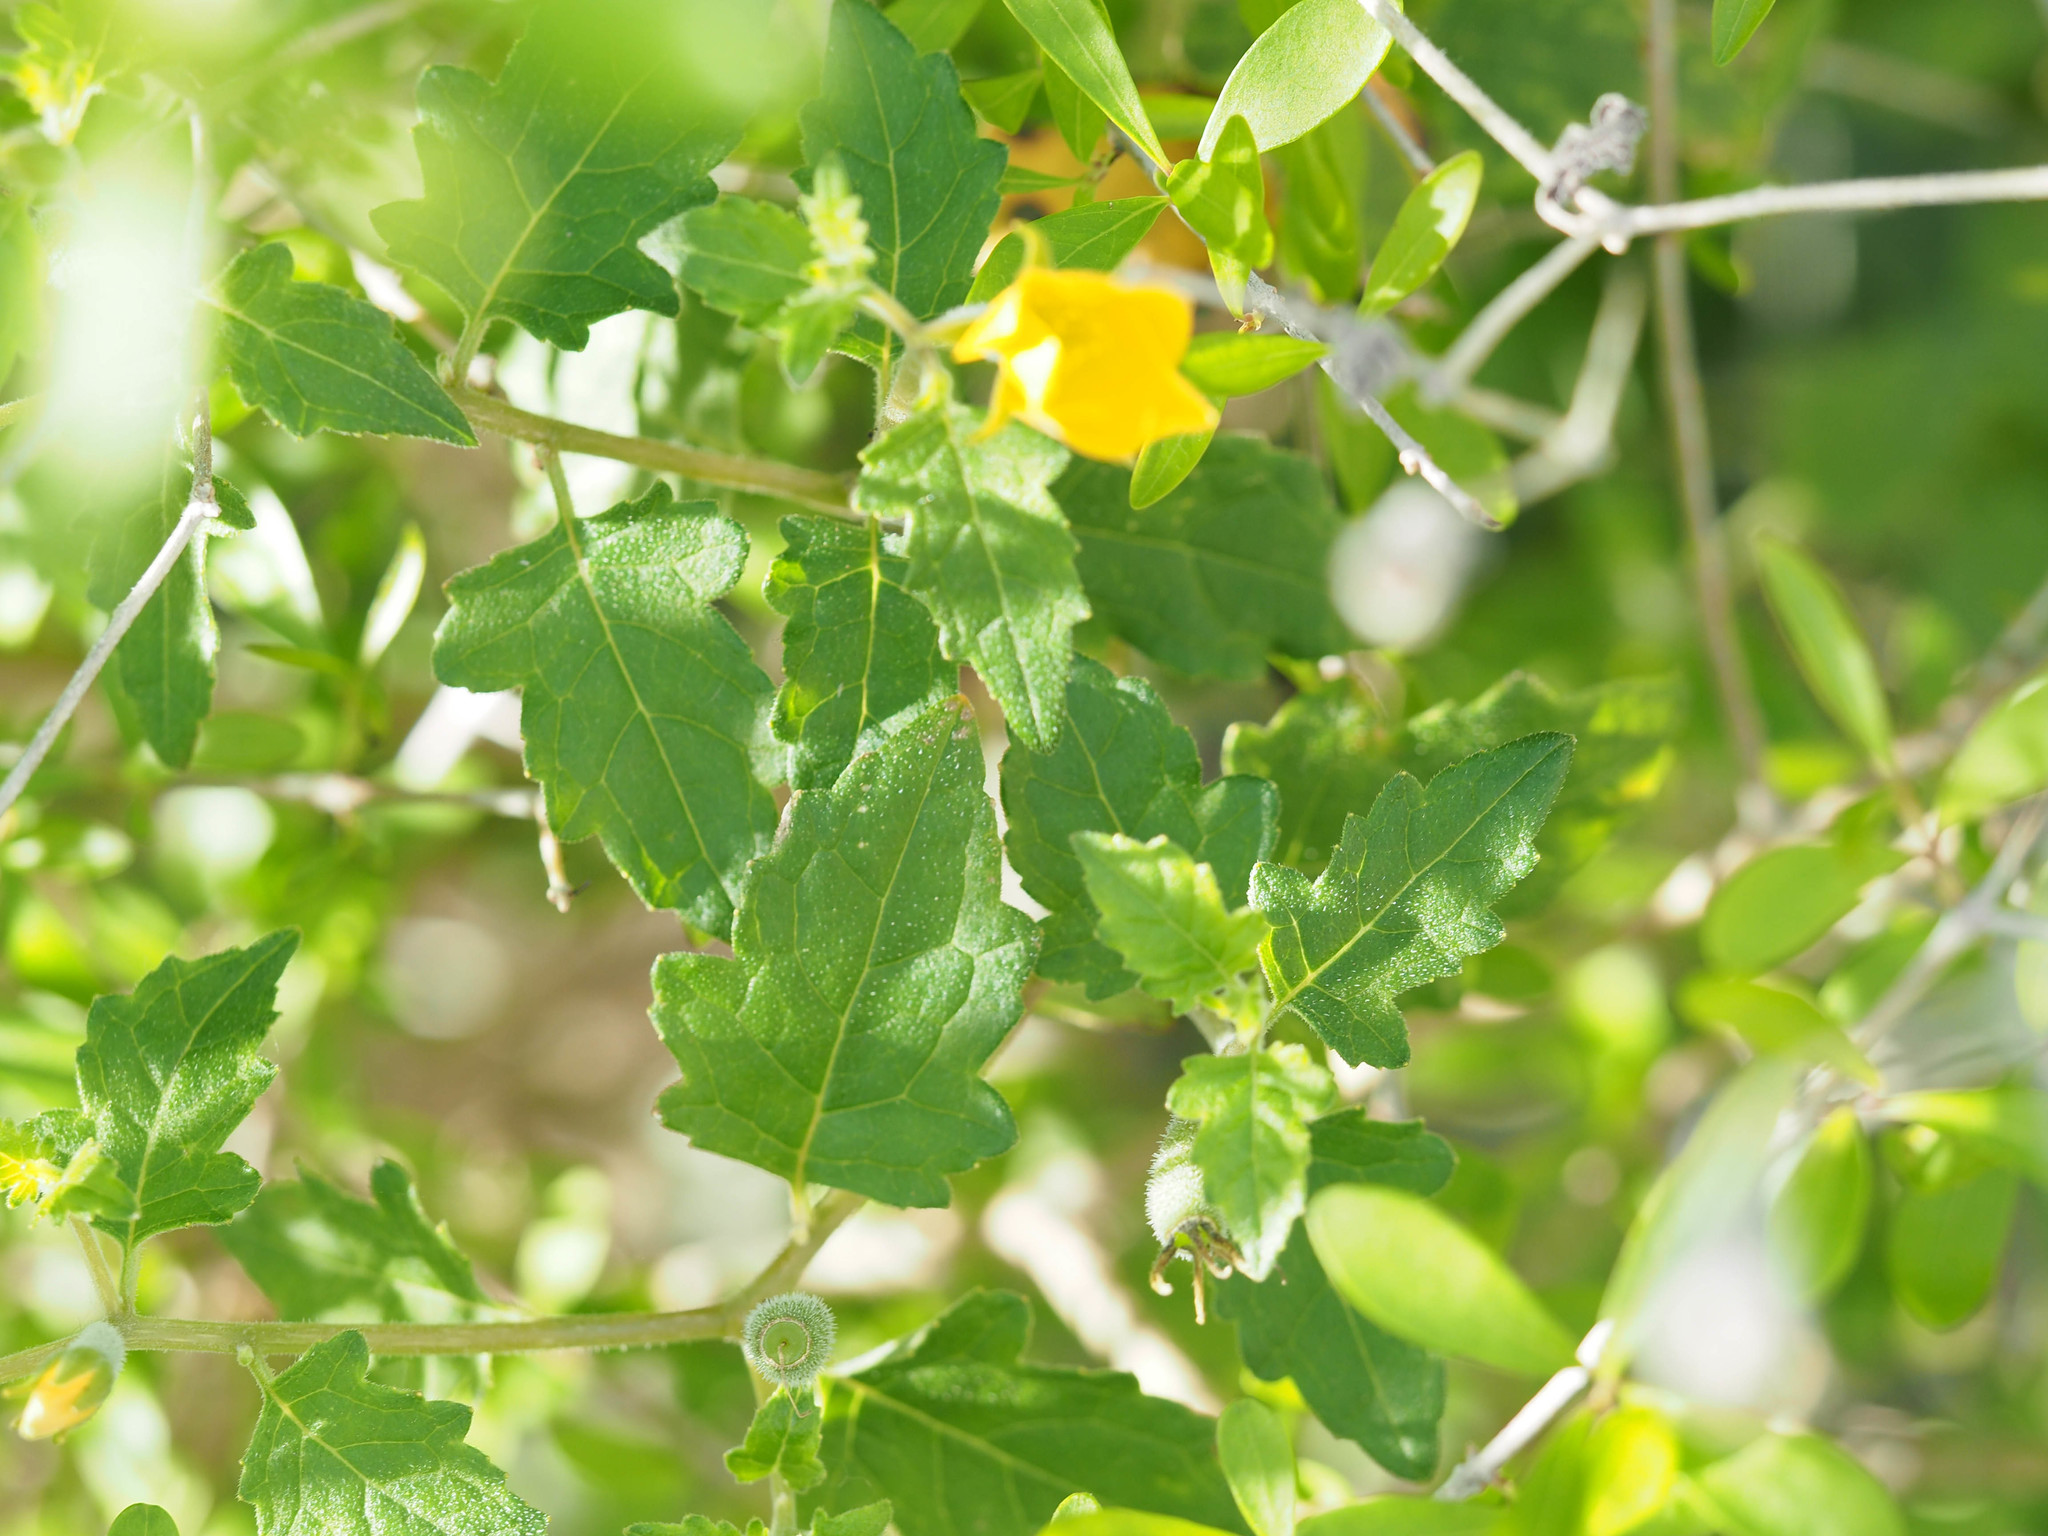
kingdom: Plantae
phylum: Tracheophyta
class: Magnoliopsida
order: Cornales
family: Loasaceae
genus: Mentzelia
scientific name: Mentzelia floridana
